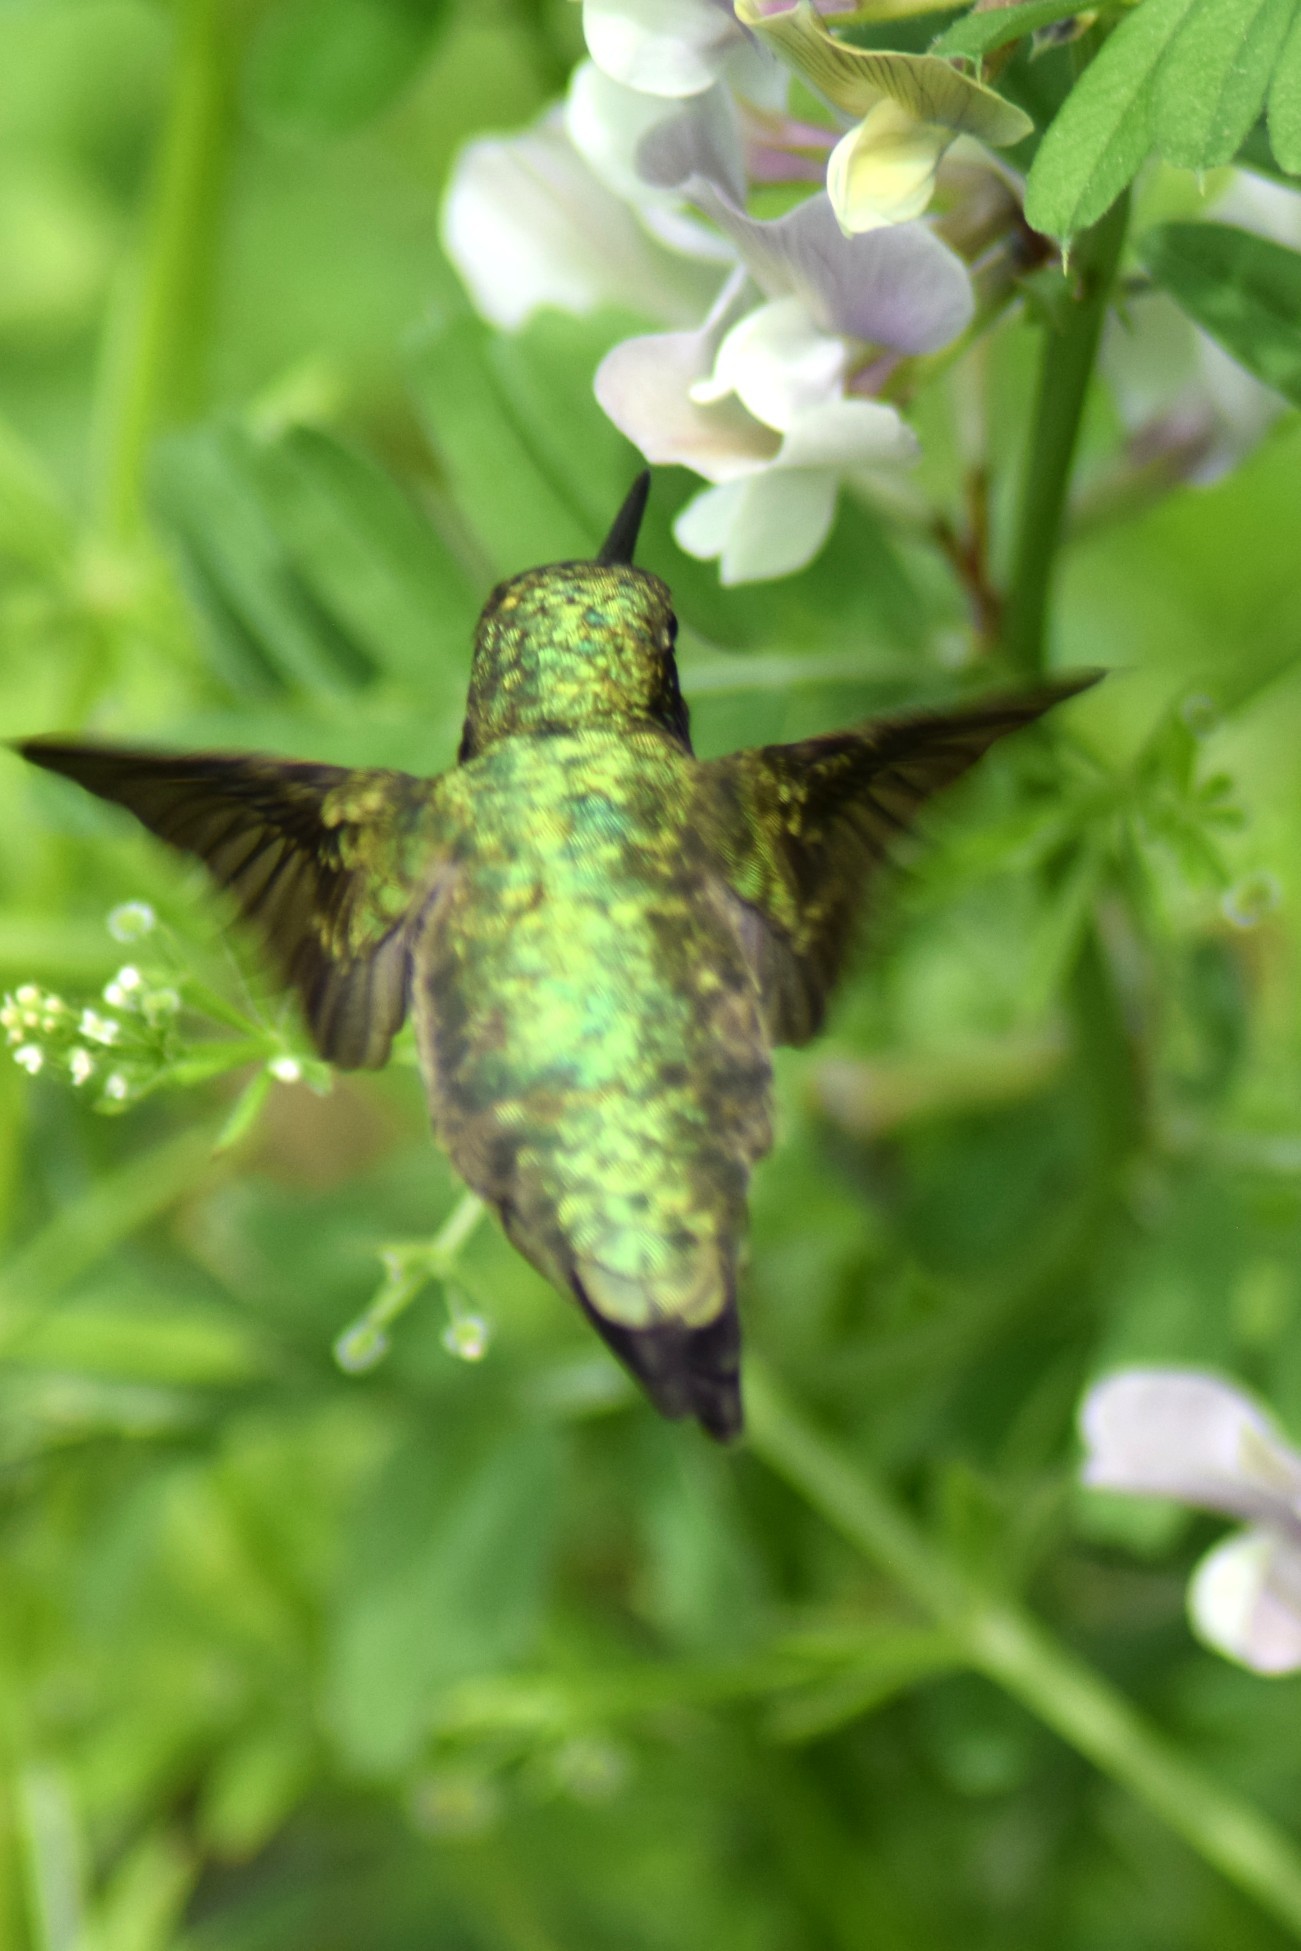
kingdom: Animalia
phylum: Chordata
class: Aves
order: Apodiformes
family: Trochilidae
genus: Archilochus
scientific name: Archilochus colubris
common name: Ruby-throated hummingbird
